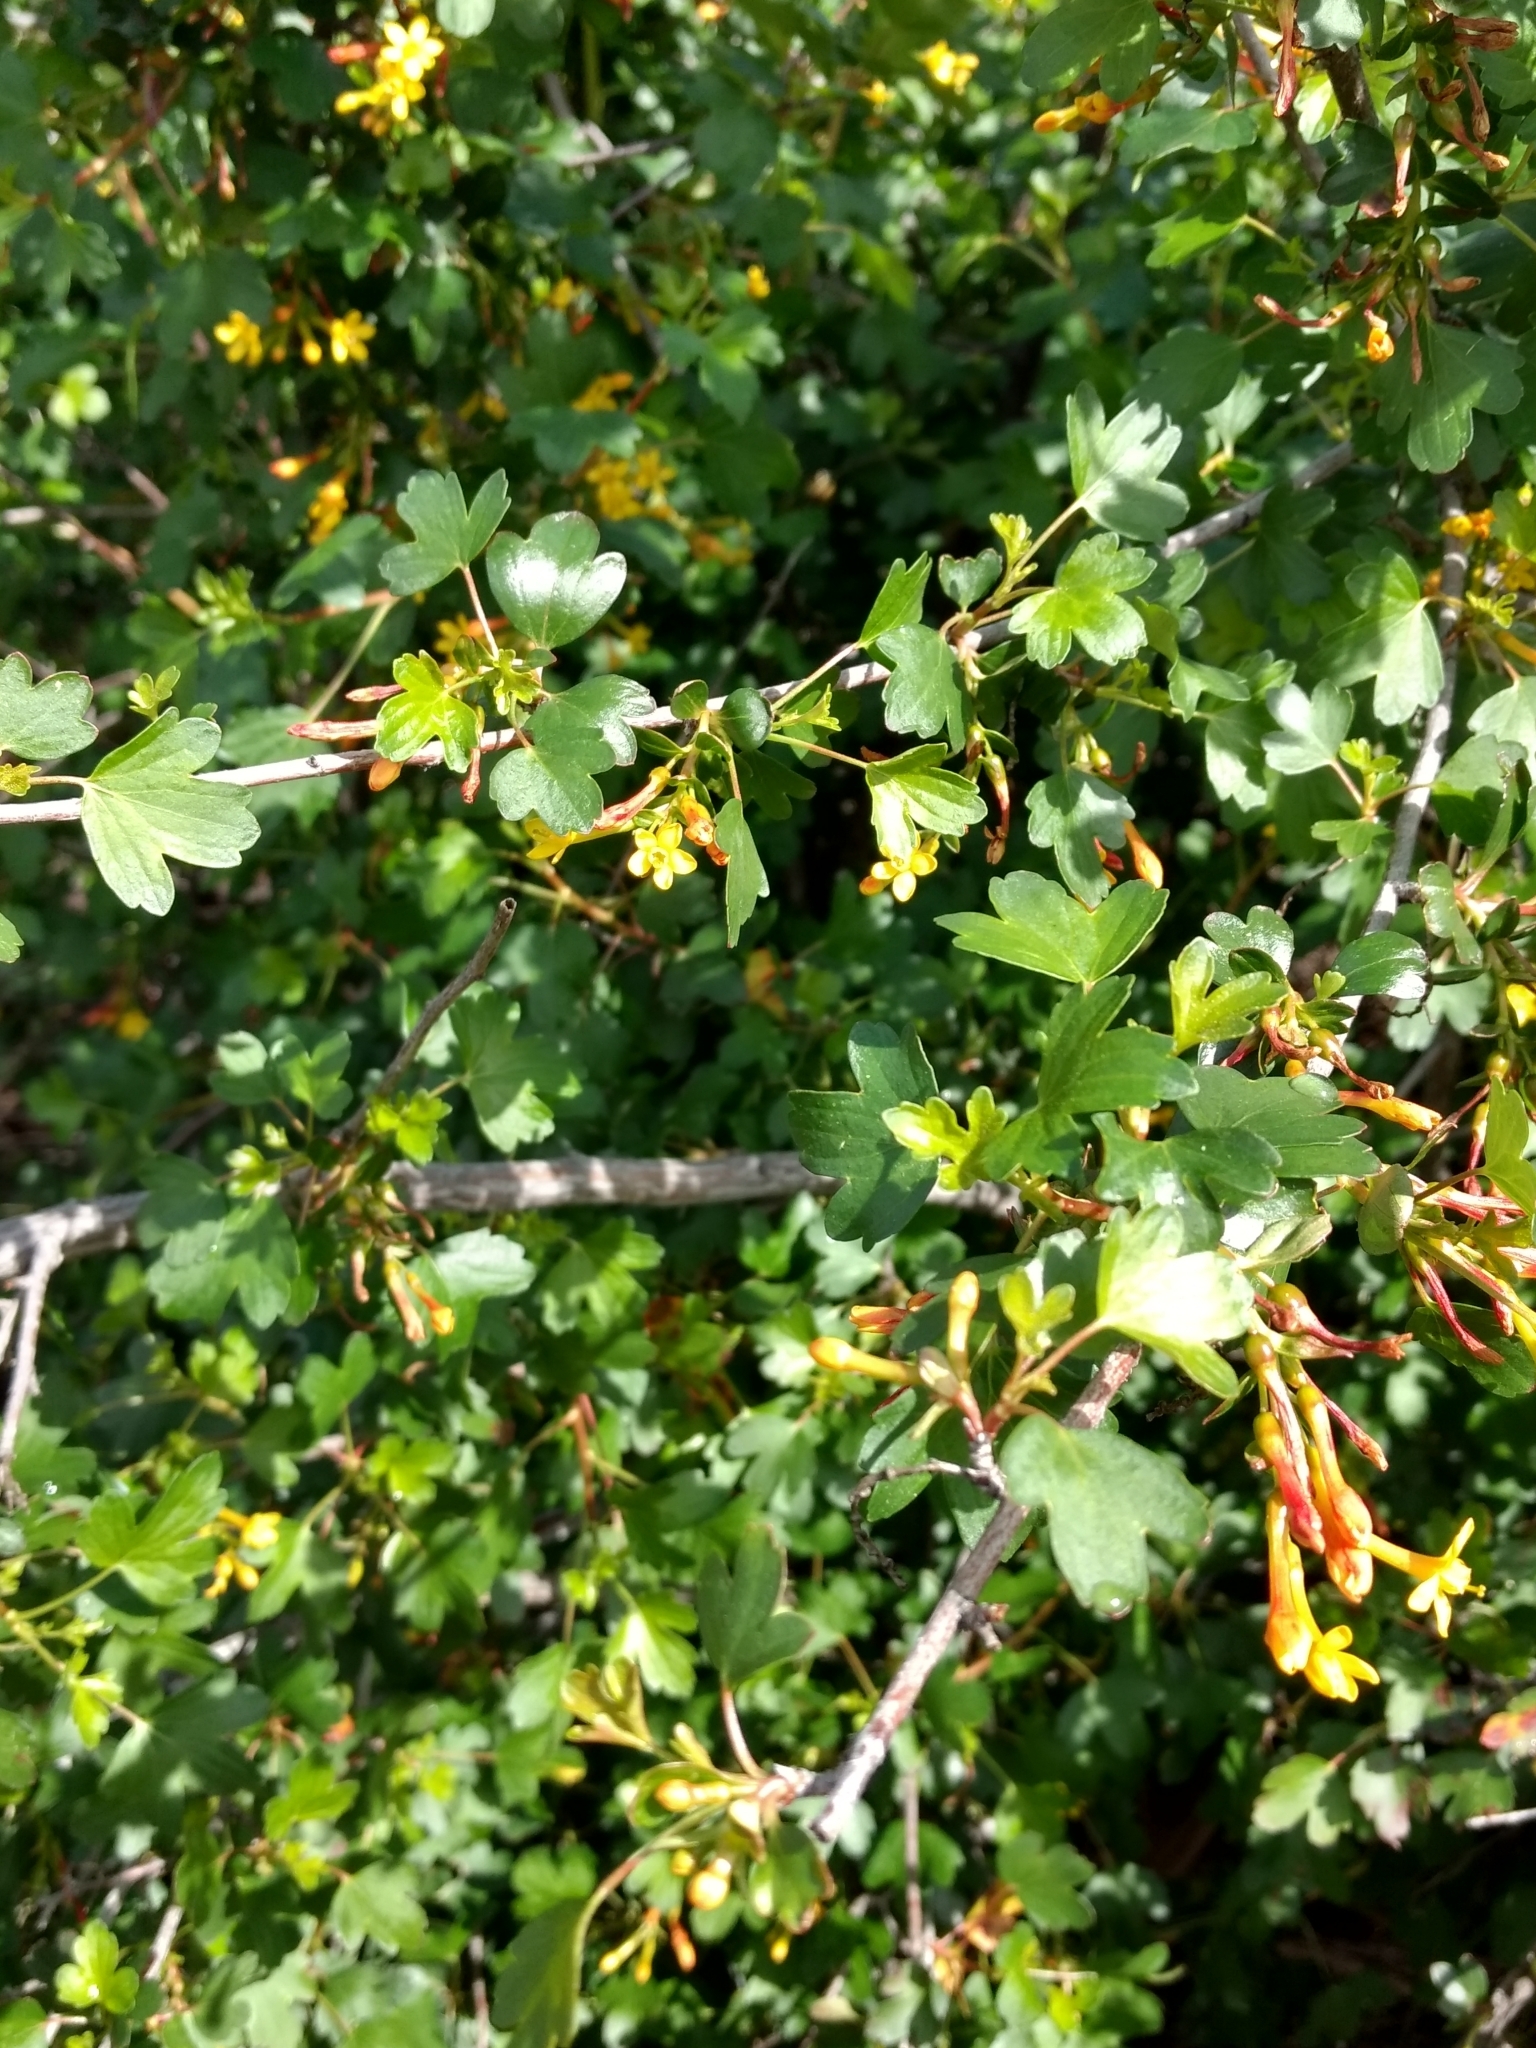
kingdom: Plantae
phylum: Tracheophyta
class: Magnoliopsida
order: Saxifragales
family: Grossulariaceae
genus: Ribes
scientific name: Ribes aureum
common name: Golden currant
